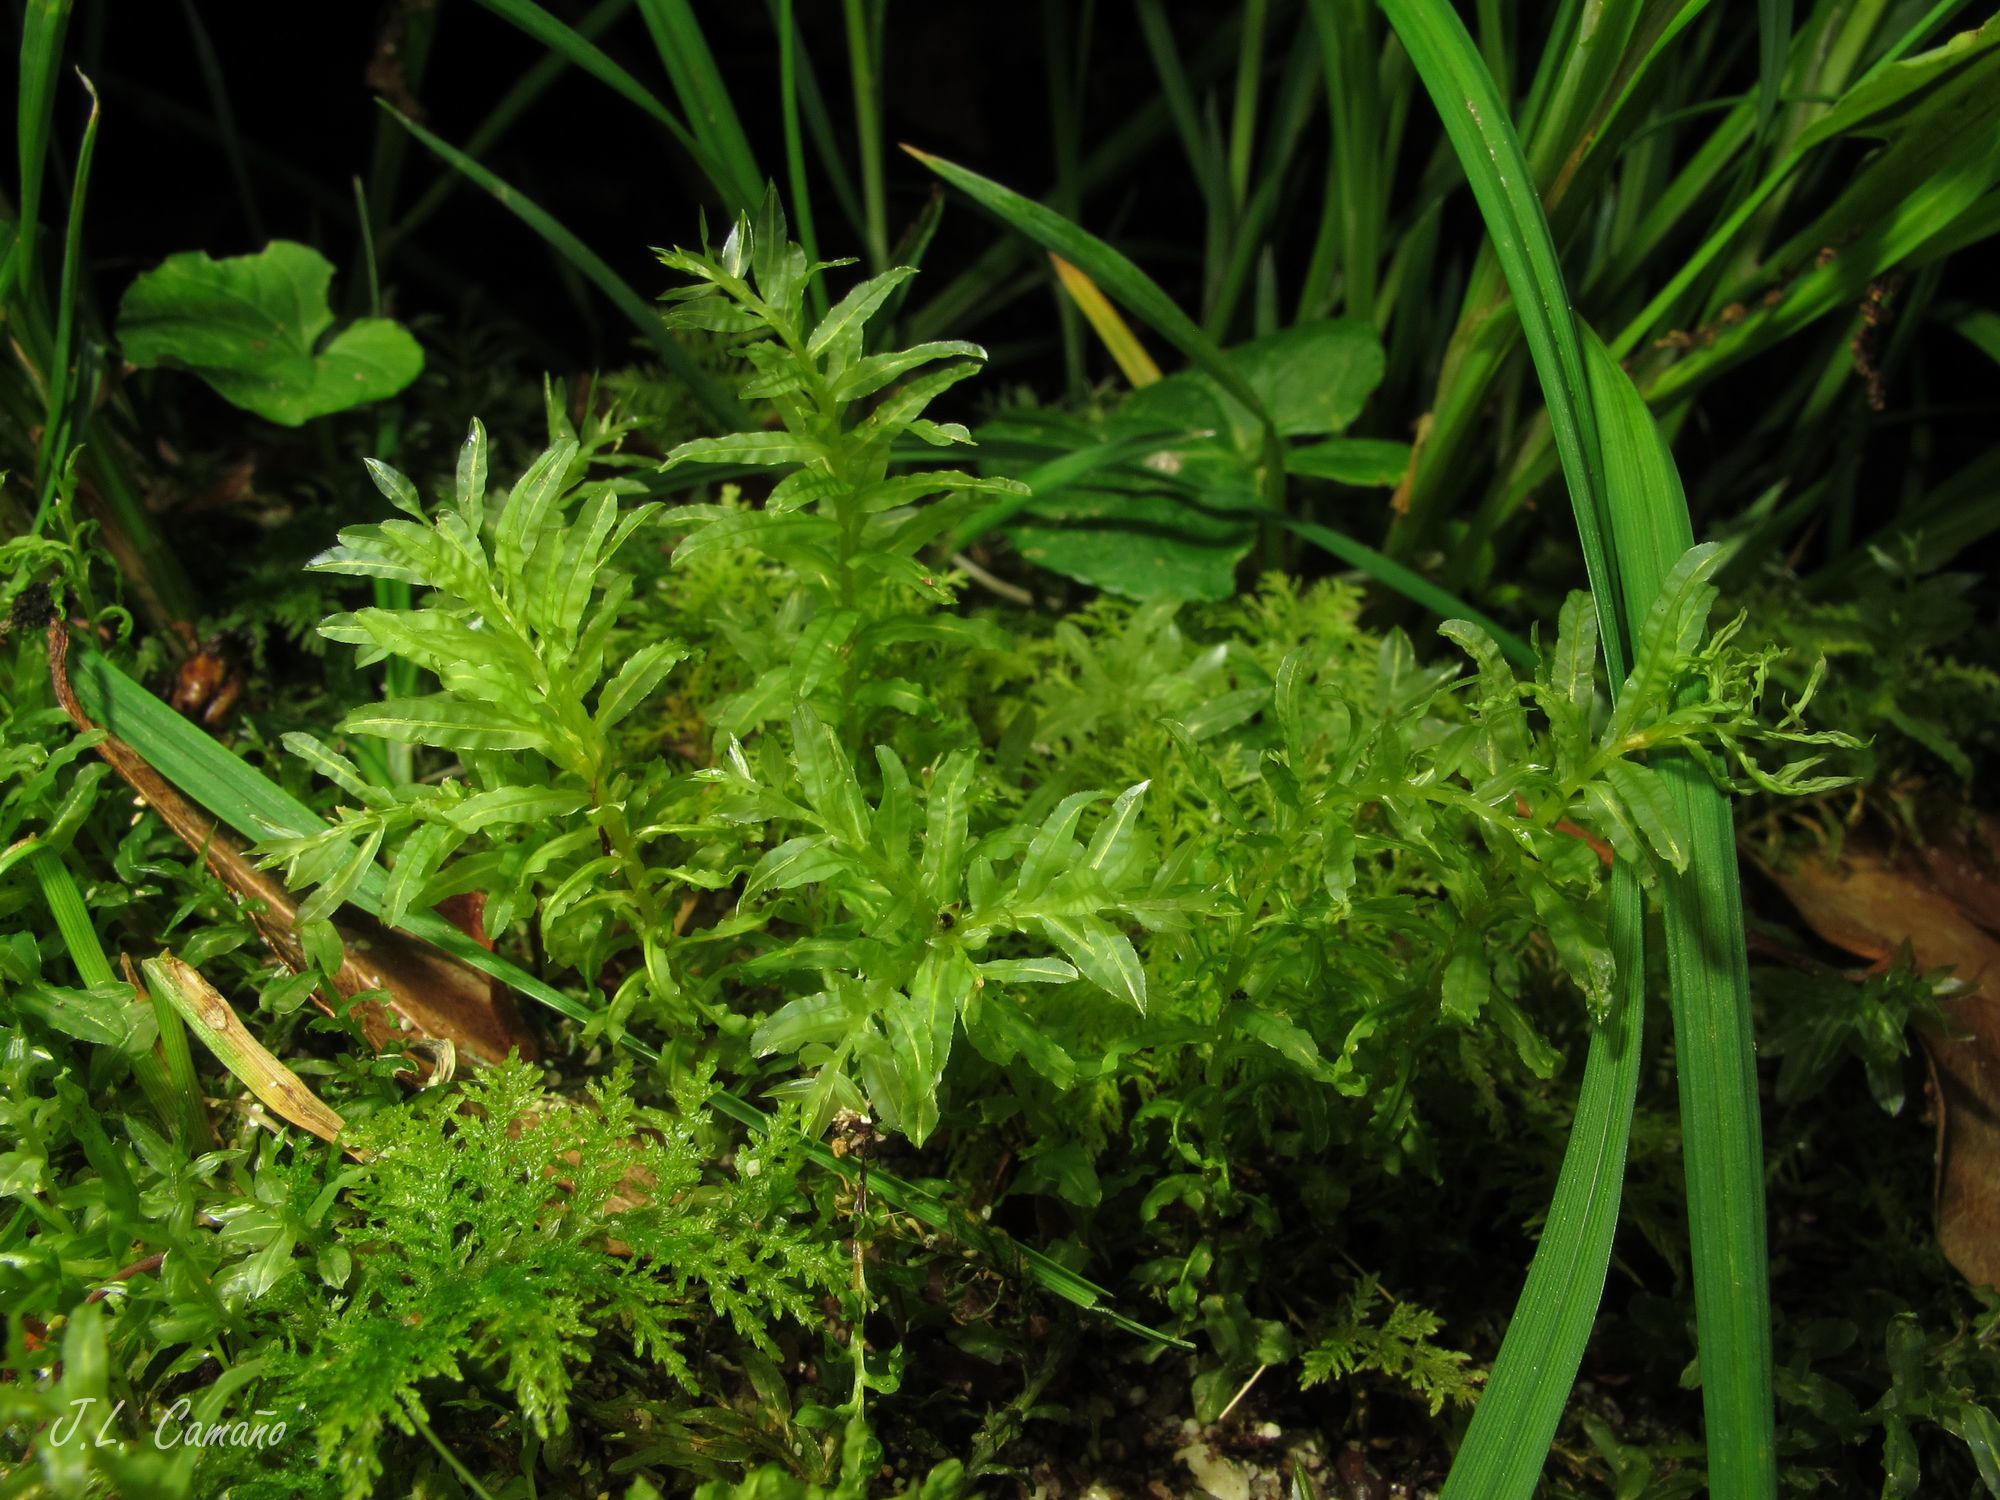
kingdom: Plantae
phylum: Bryophyta
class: Bryopsida
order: Bryales
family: Mniaceae
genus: Plagiomnium
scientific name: Plagiomnium undulatum
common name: Hart's-tongue thyme-moss
